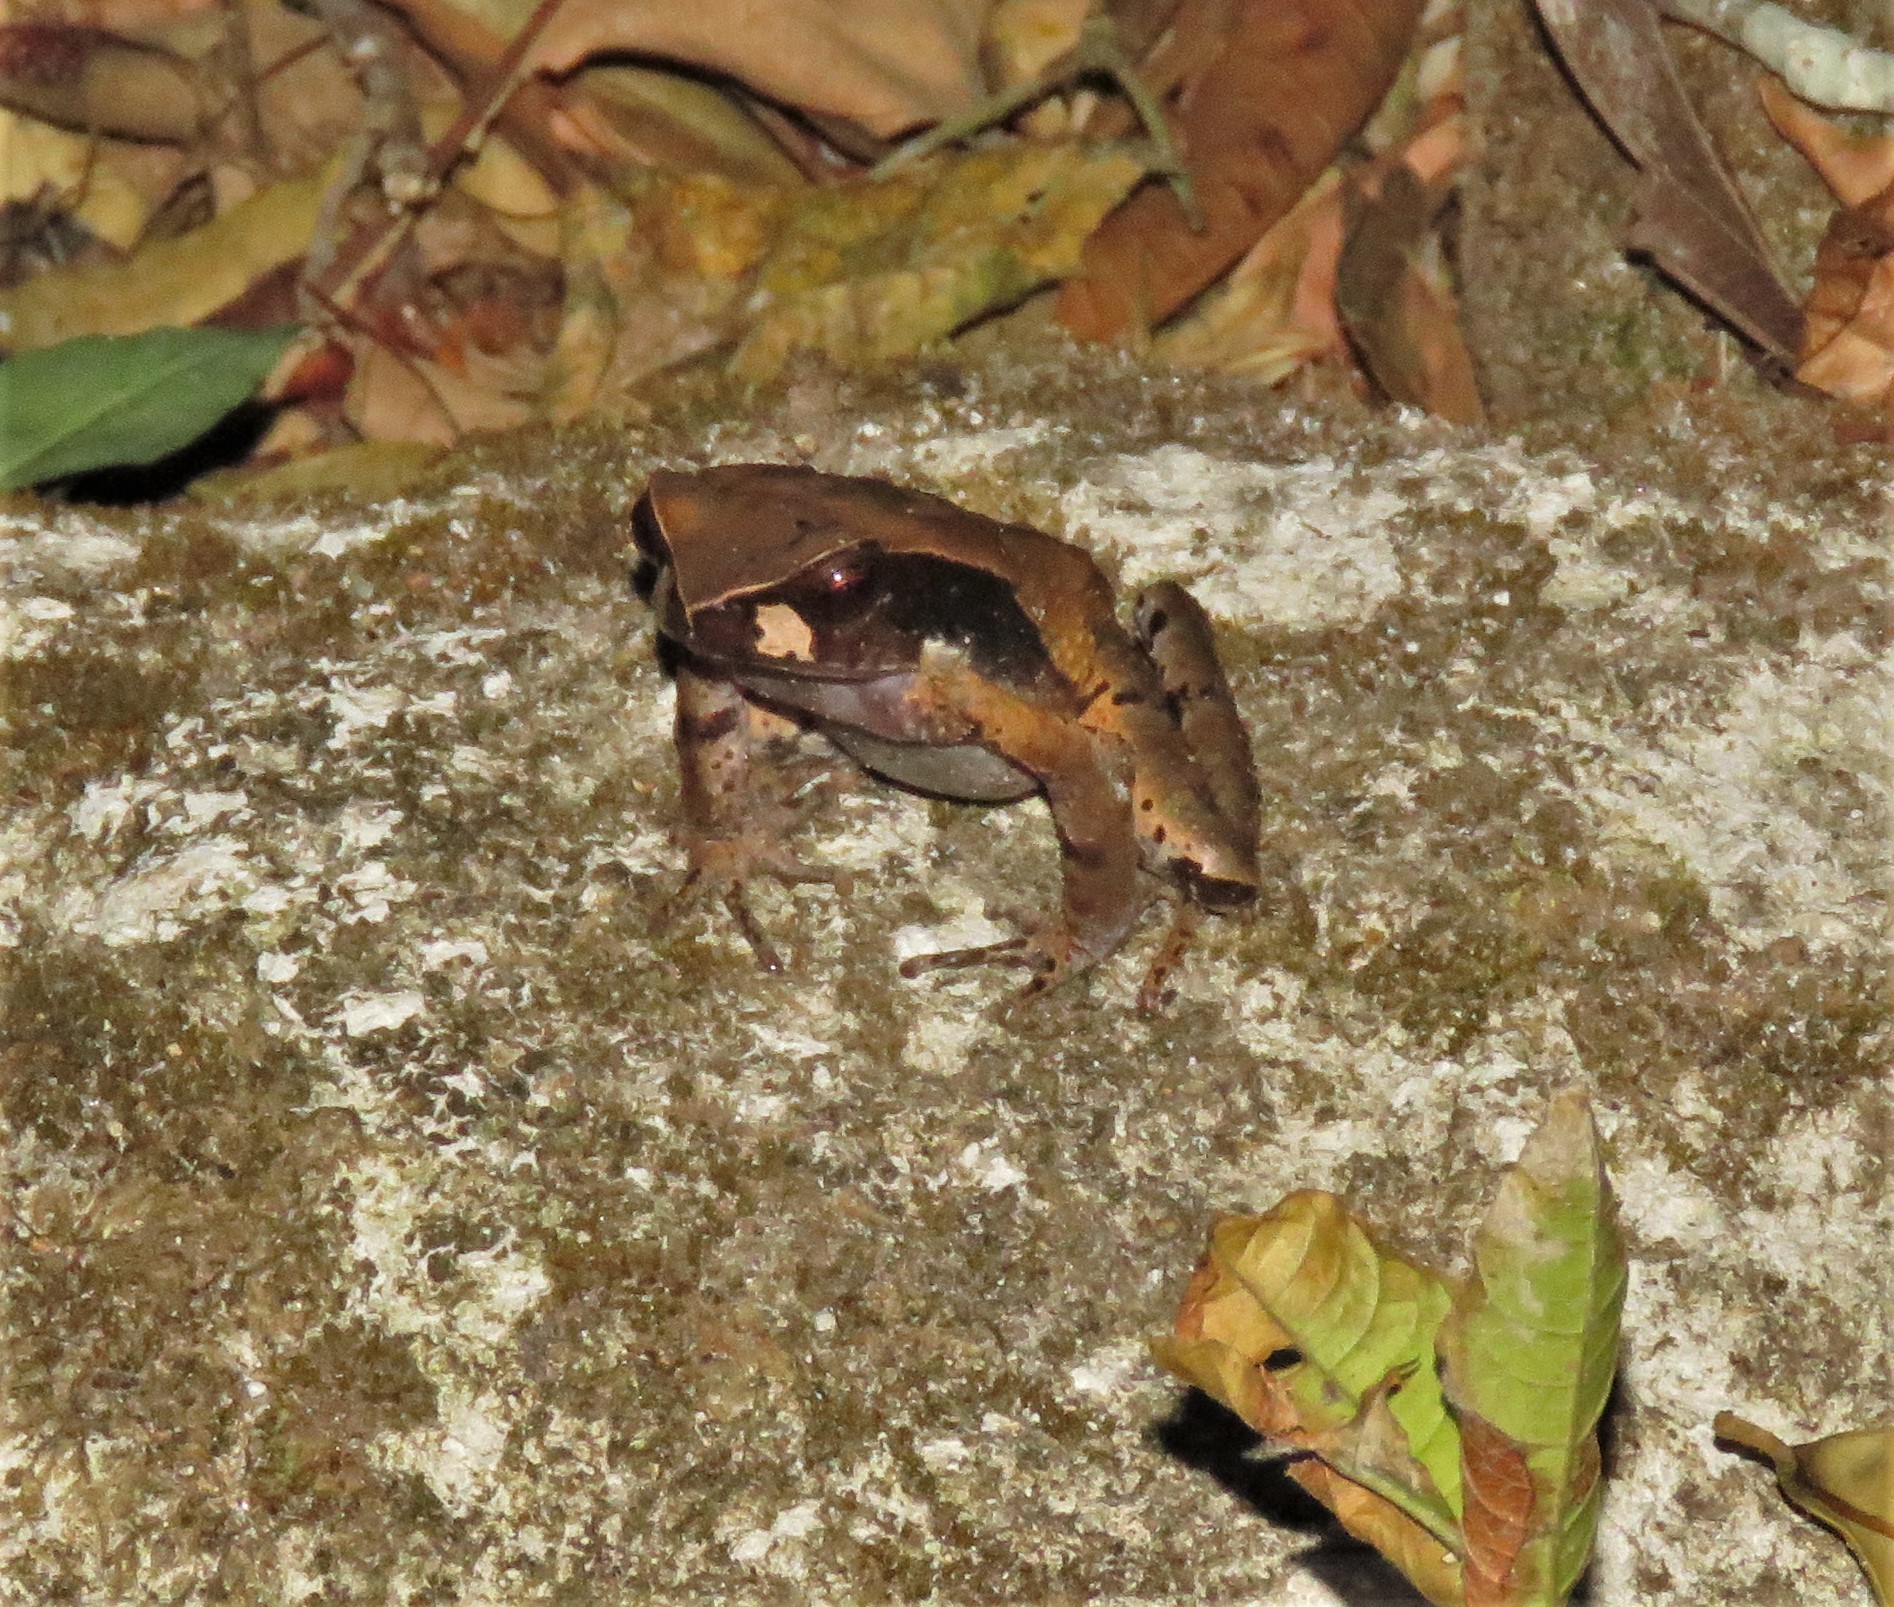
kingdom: Animalia
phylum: Chordata
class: Amphibia
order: Anura
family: Bufonidae
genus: Rhaebo
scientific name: Rhaebo haematiticus
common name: Truando toad
